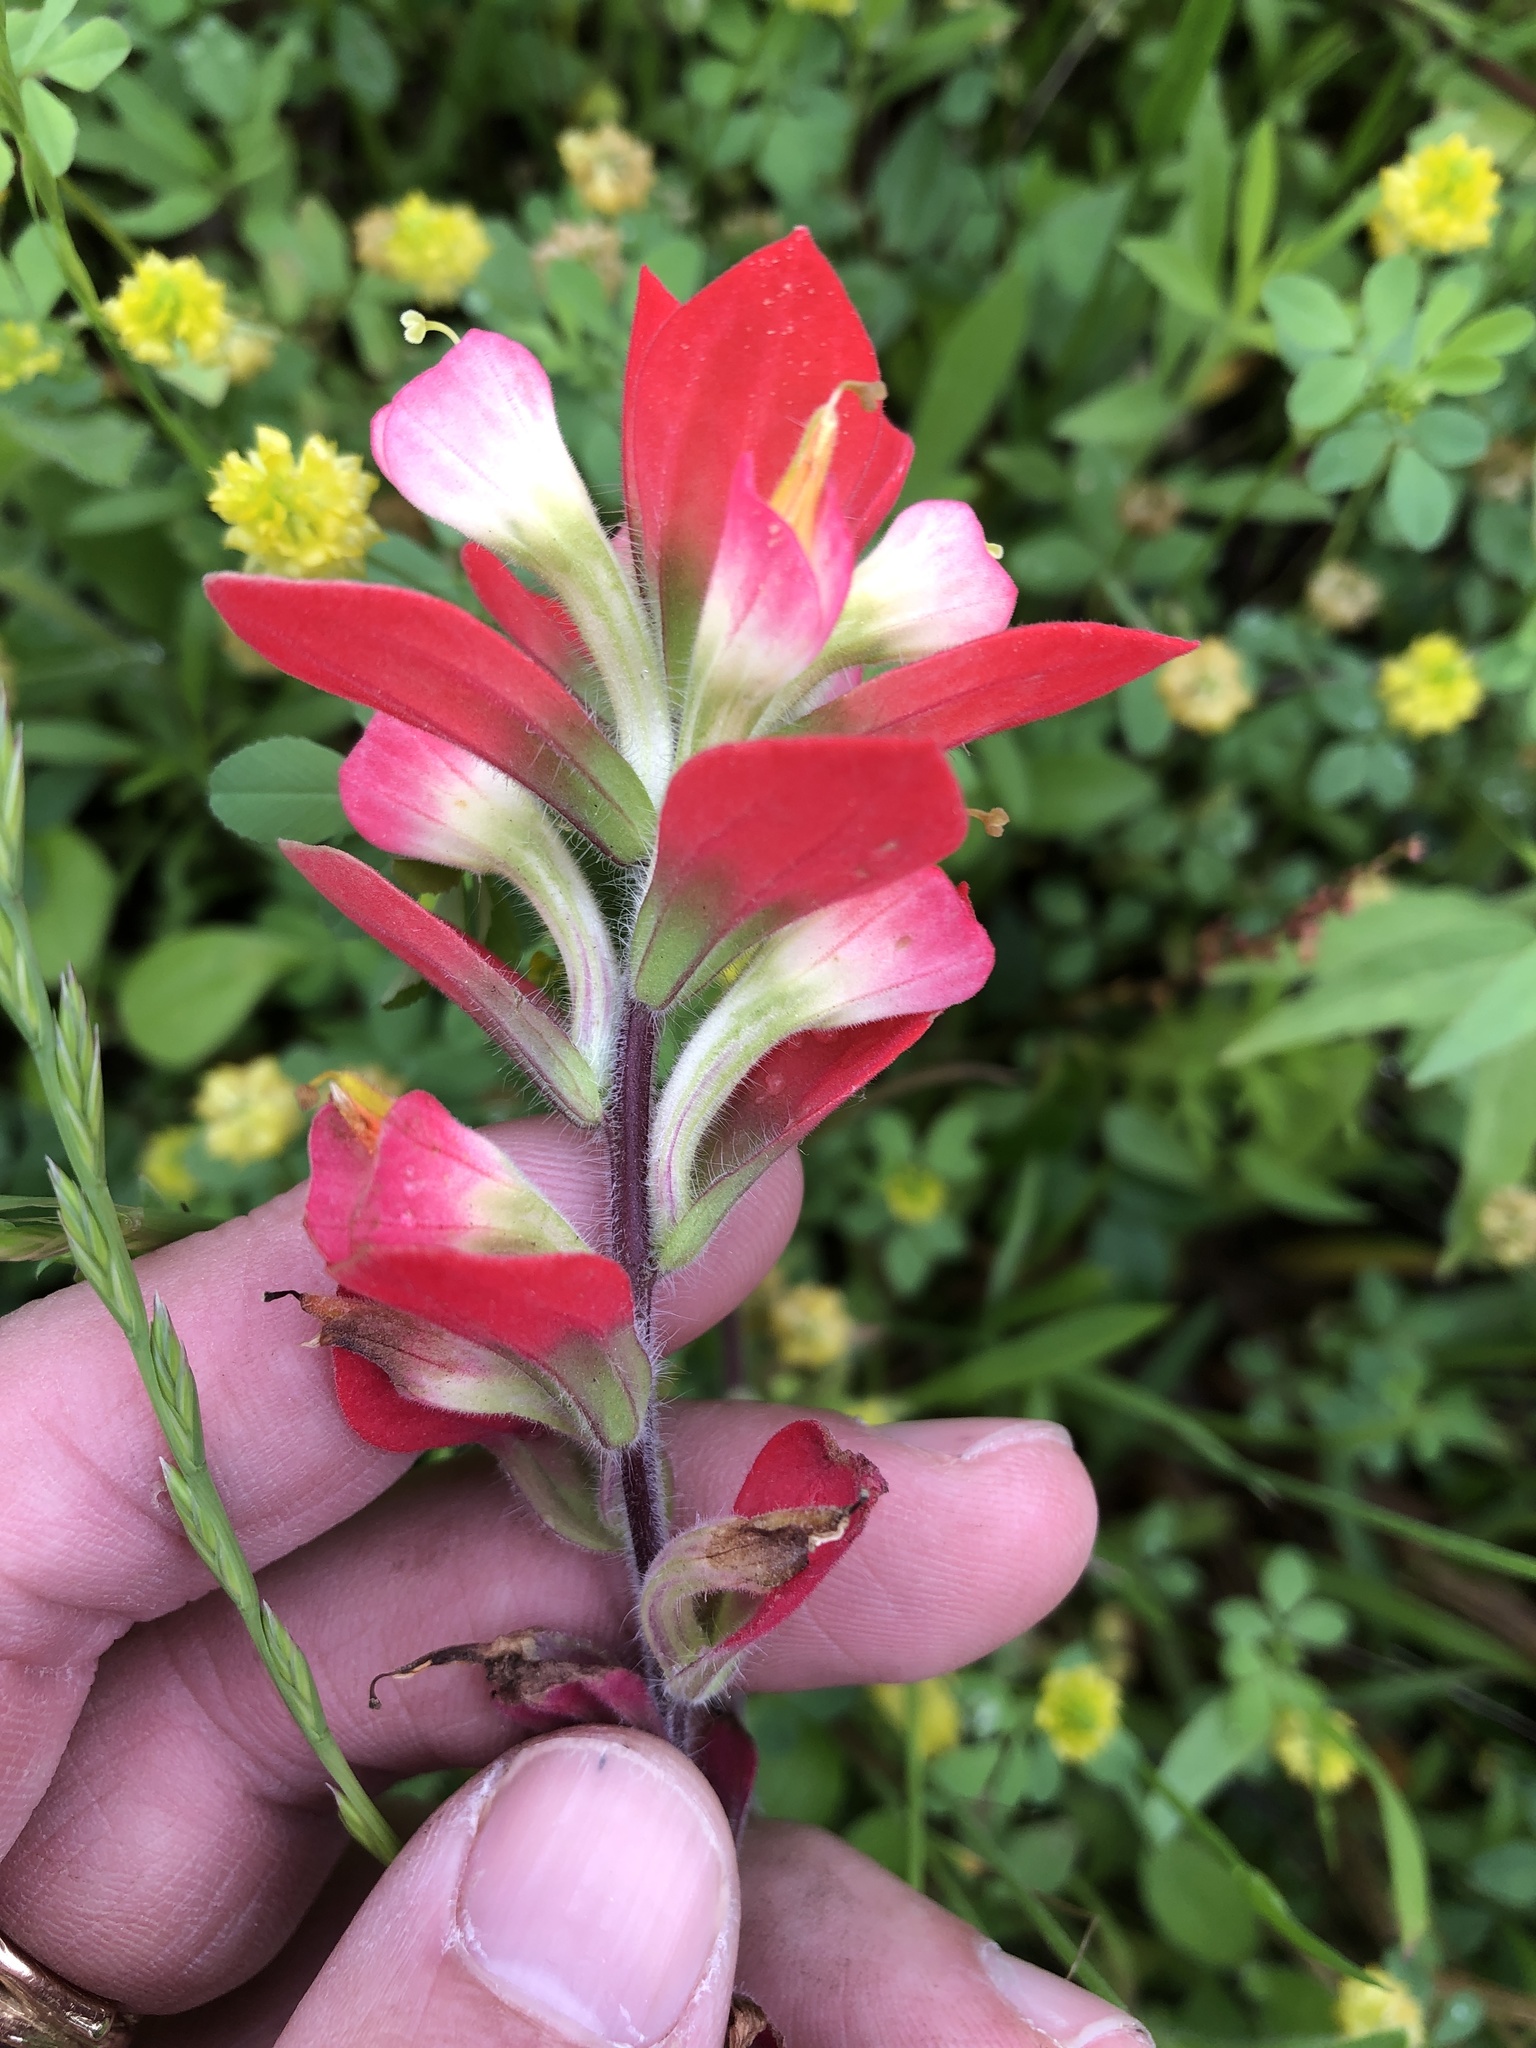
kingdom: Plantae
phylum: Tracheophyta
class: Magnoliopsida
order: Lamiales
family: Orobanchaceae
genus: Castilleja
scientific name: Castilleja indivisa
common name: Texas paintbrush
